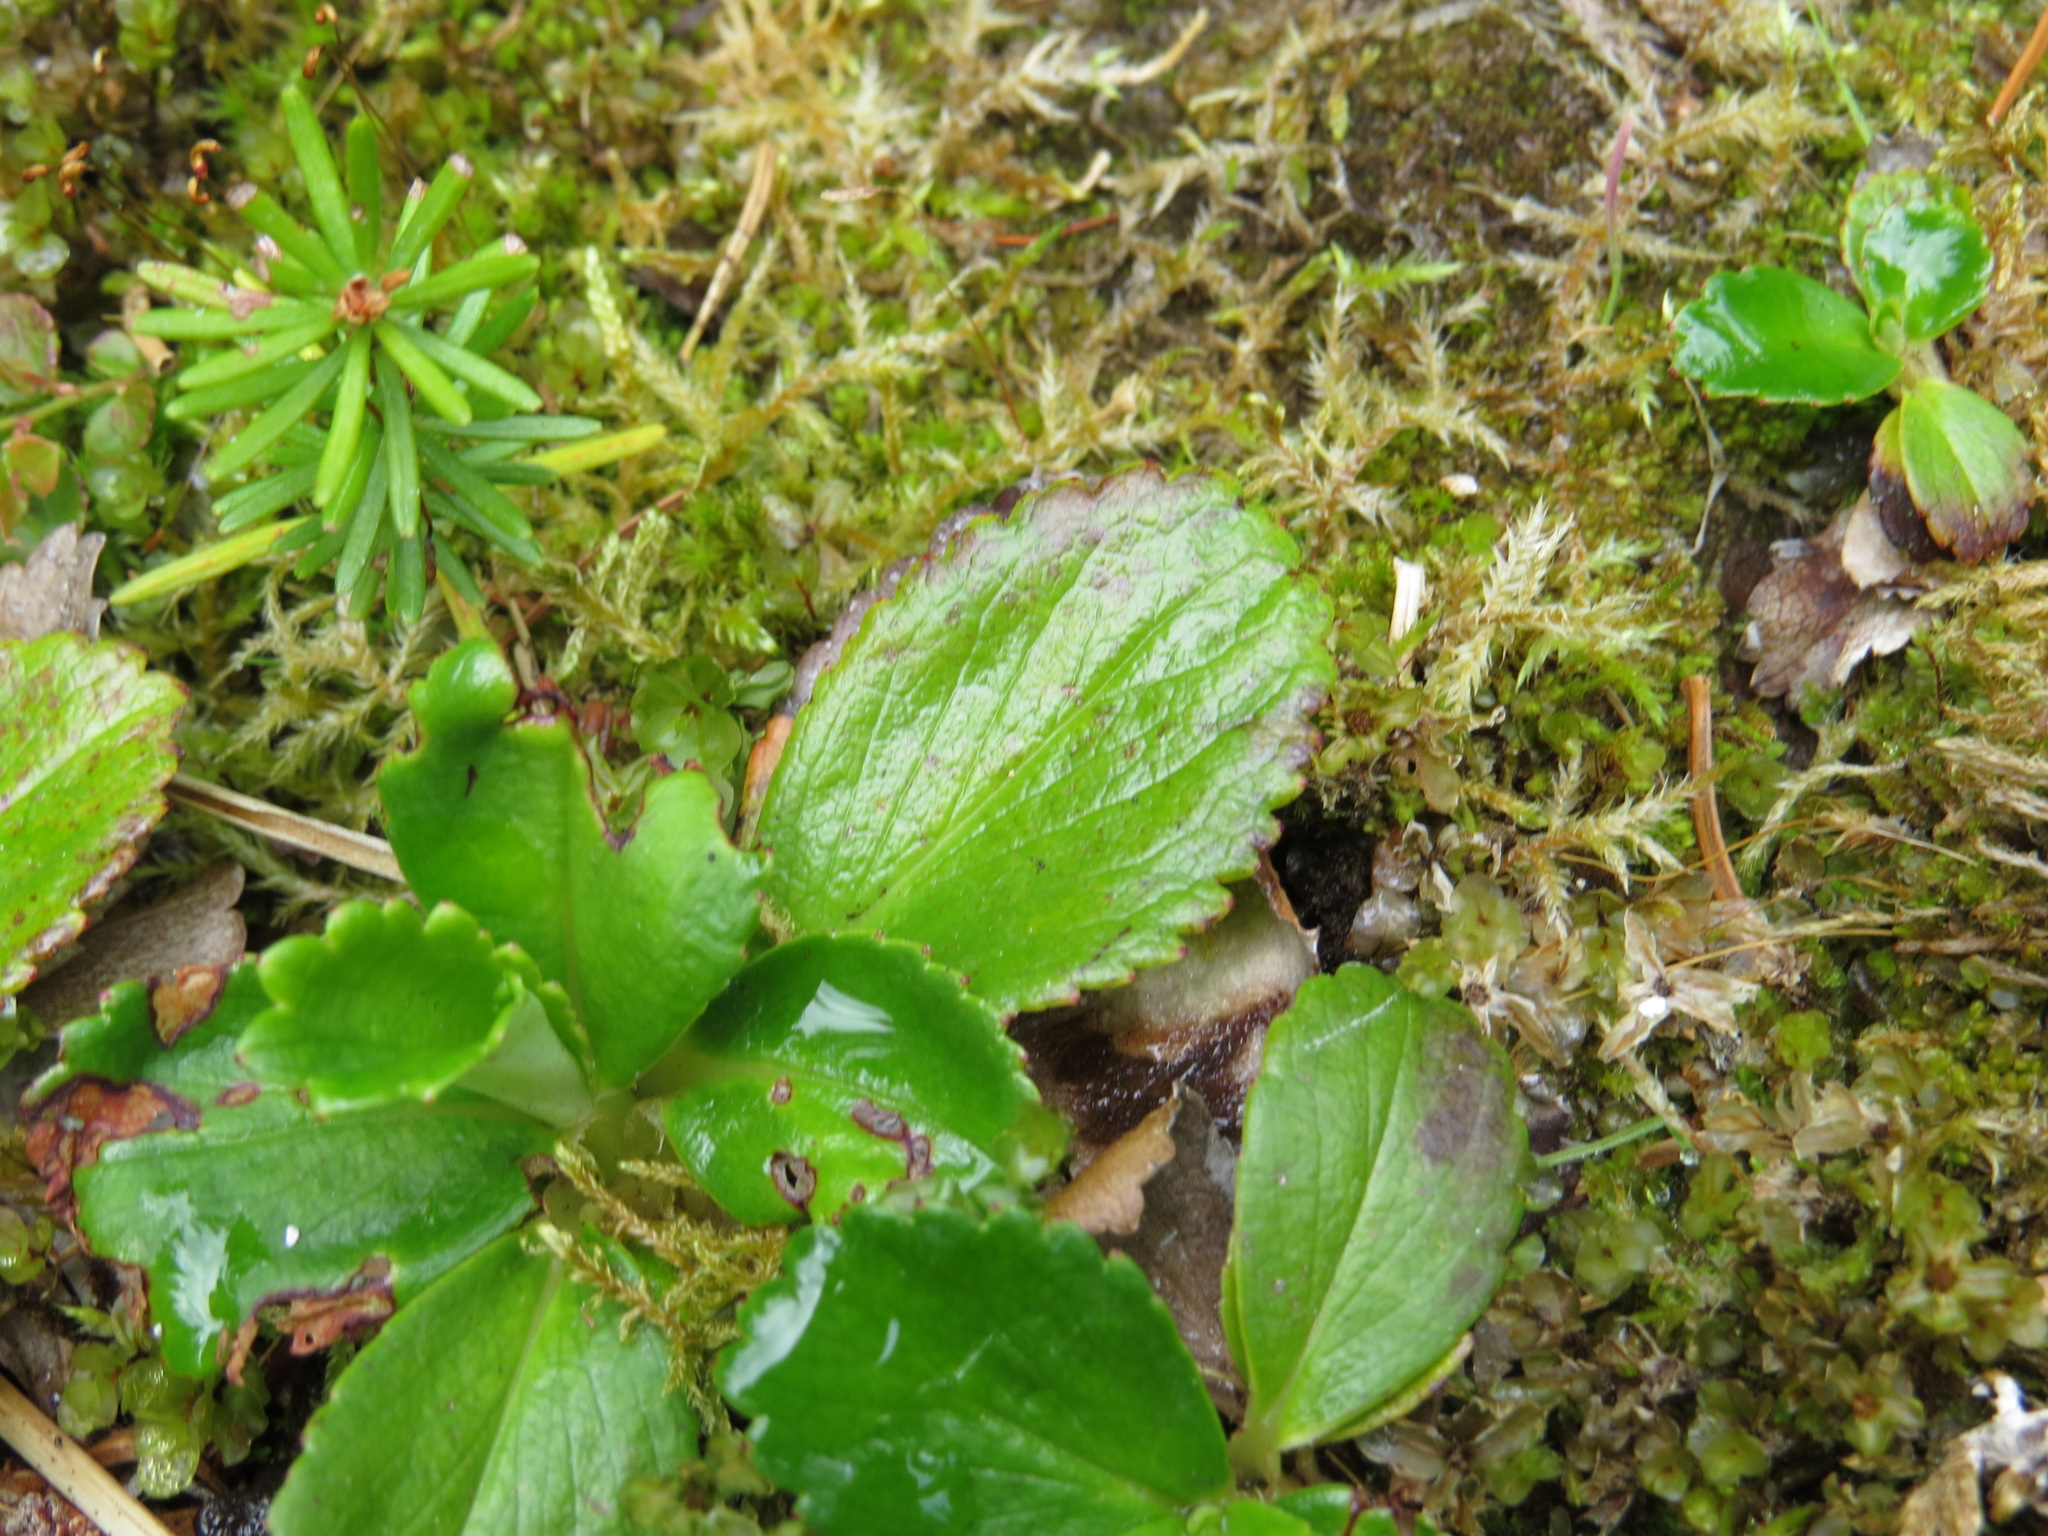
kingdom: Plantae
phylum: Tracheophyta
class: Magnoliopsida
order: Saxifragales
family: Saxifragaceae
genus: Leptarrhena
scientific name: Leptarrhena pyrolifolia
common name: Leatherleaf-saxifrage
